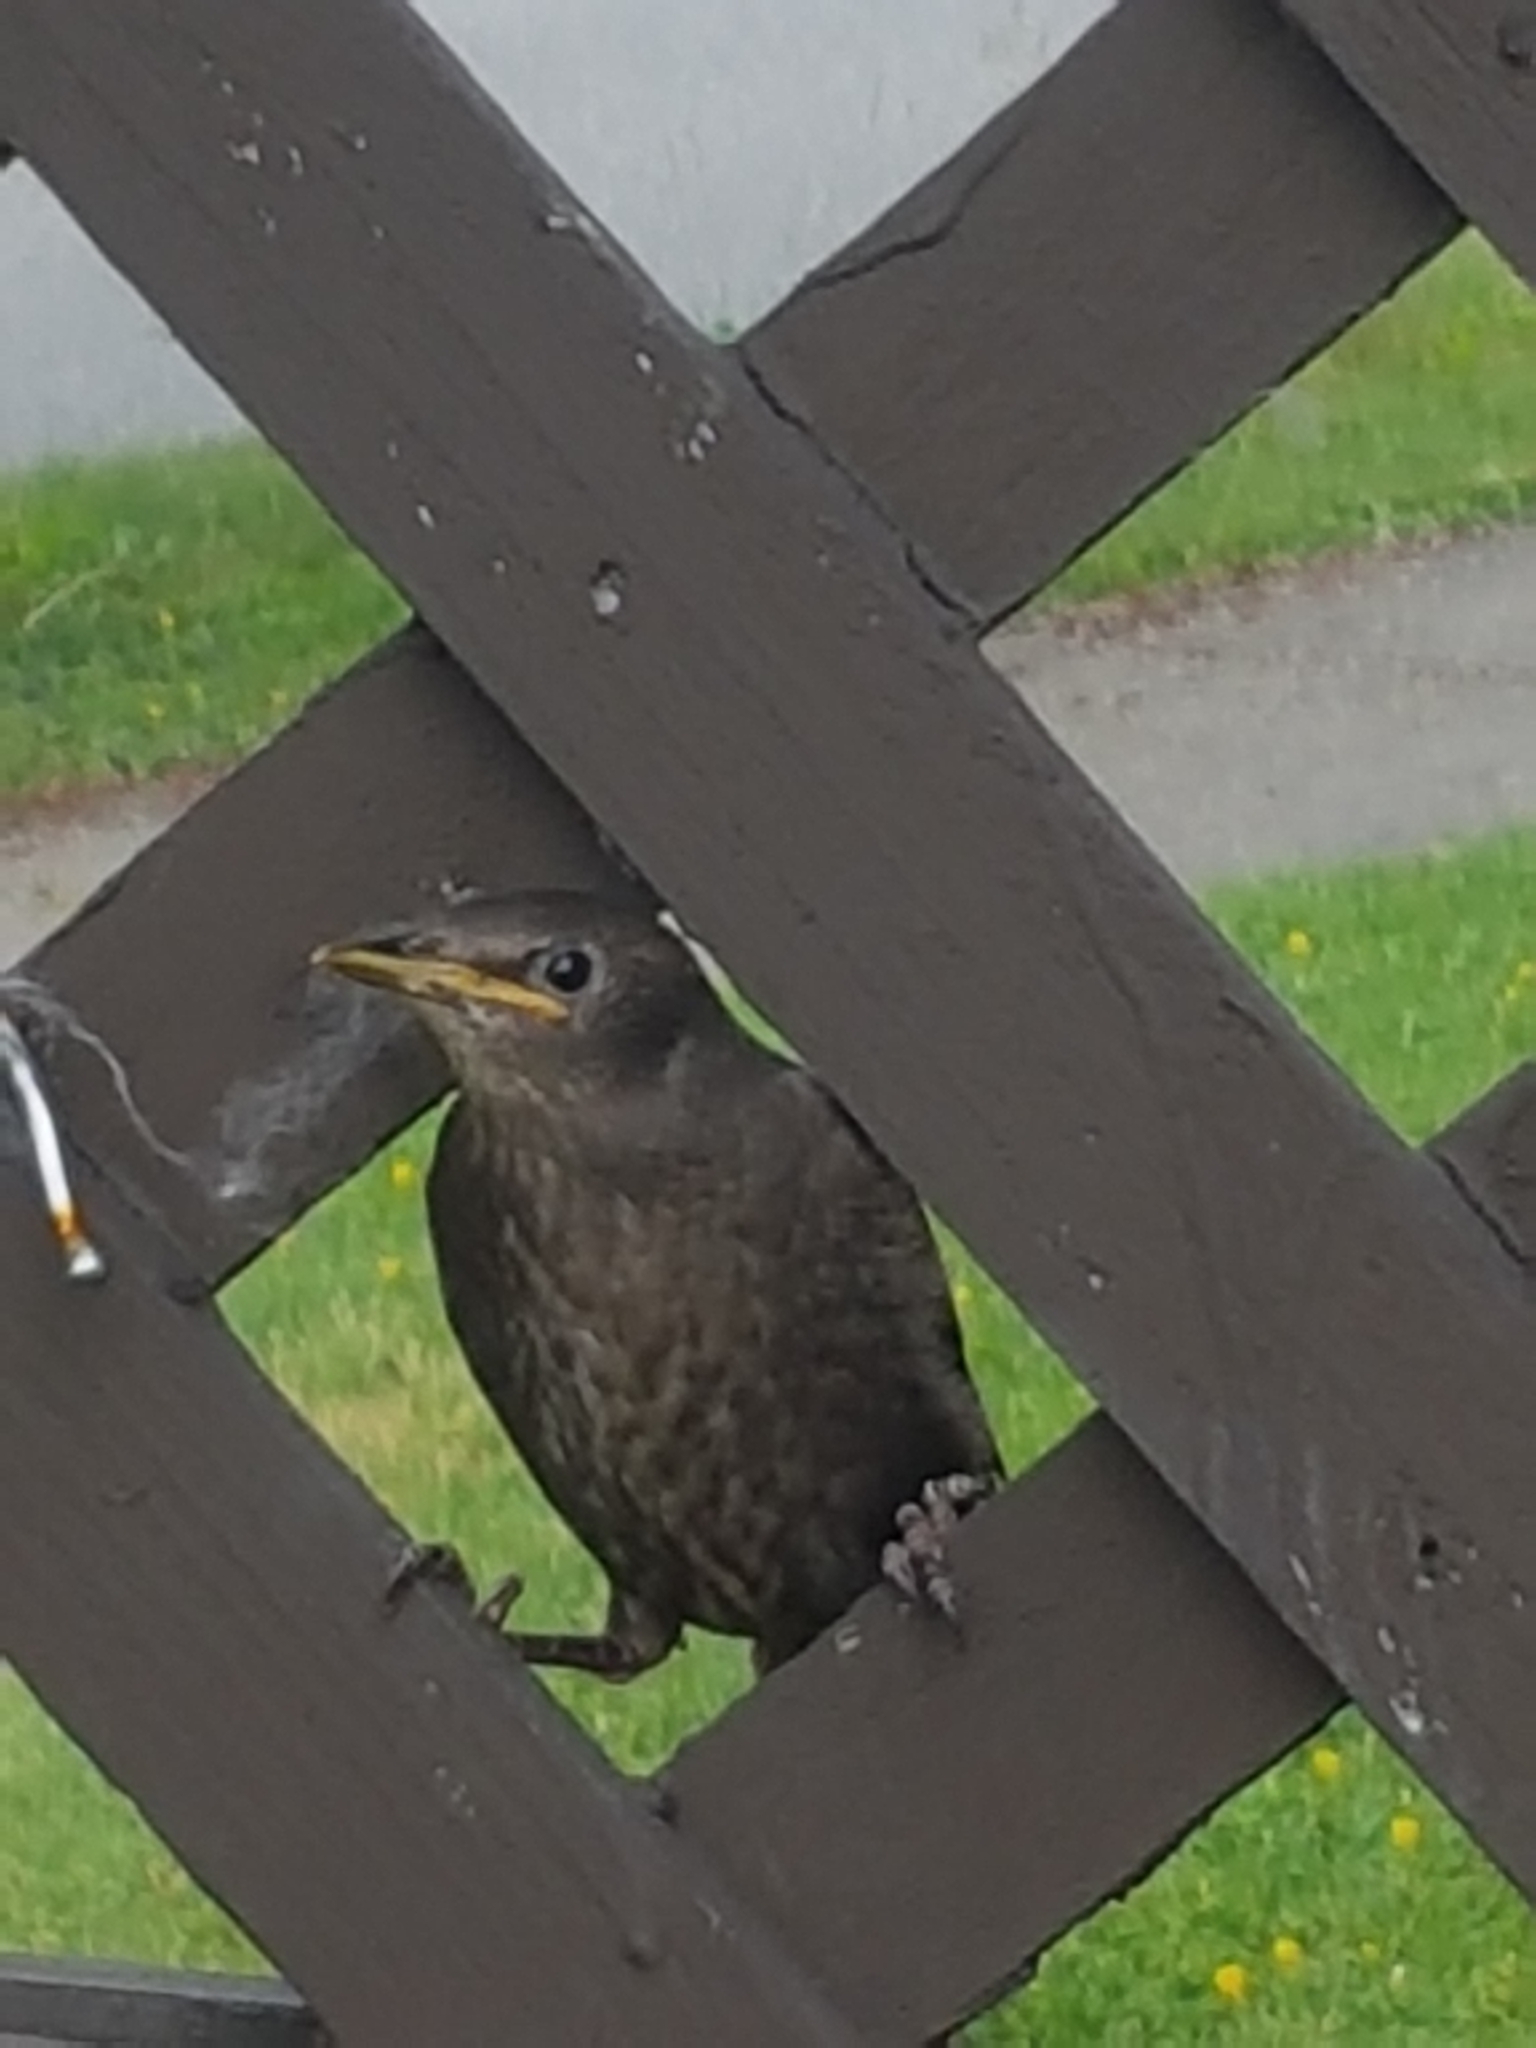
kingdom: Animalia
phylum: Chordata
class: Aves
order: Passeriformes
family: Sturnidae
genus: Sturnus
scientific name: Sturnus vulgaris
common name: Common starling
